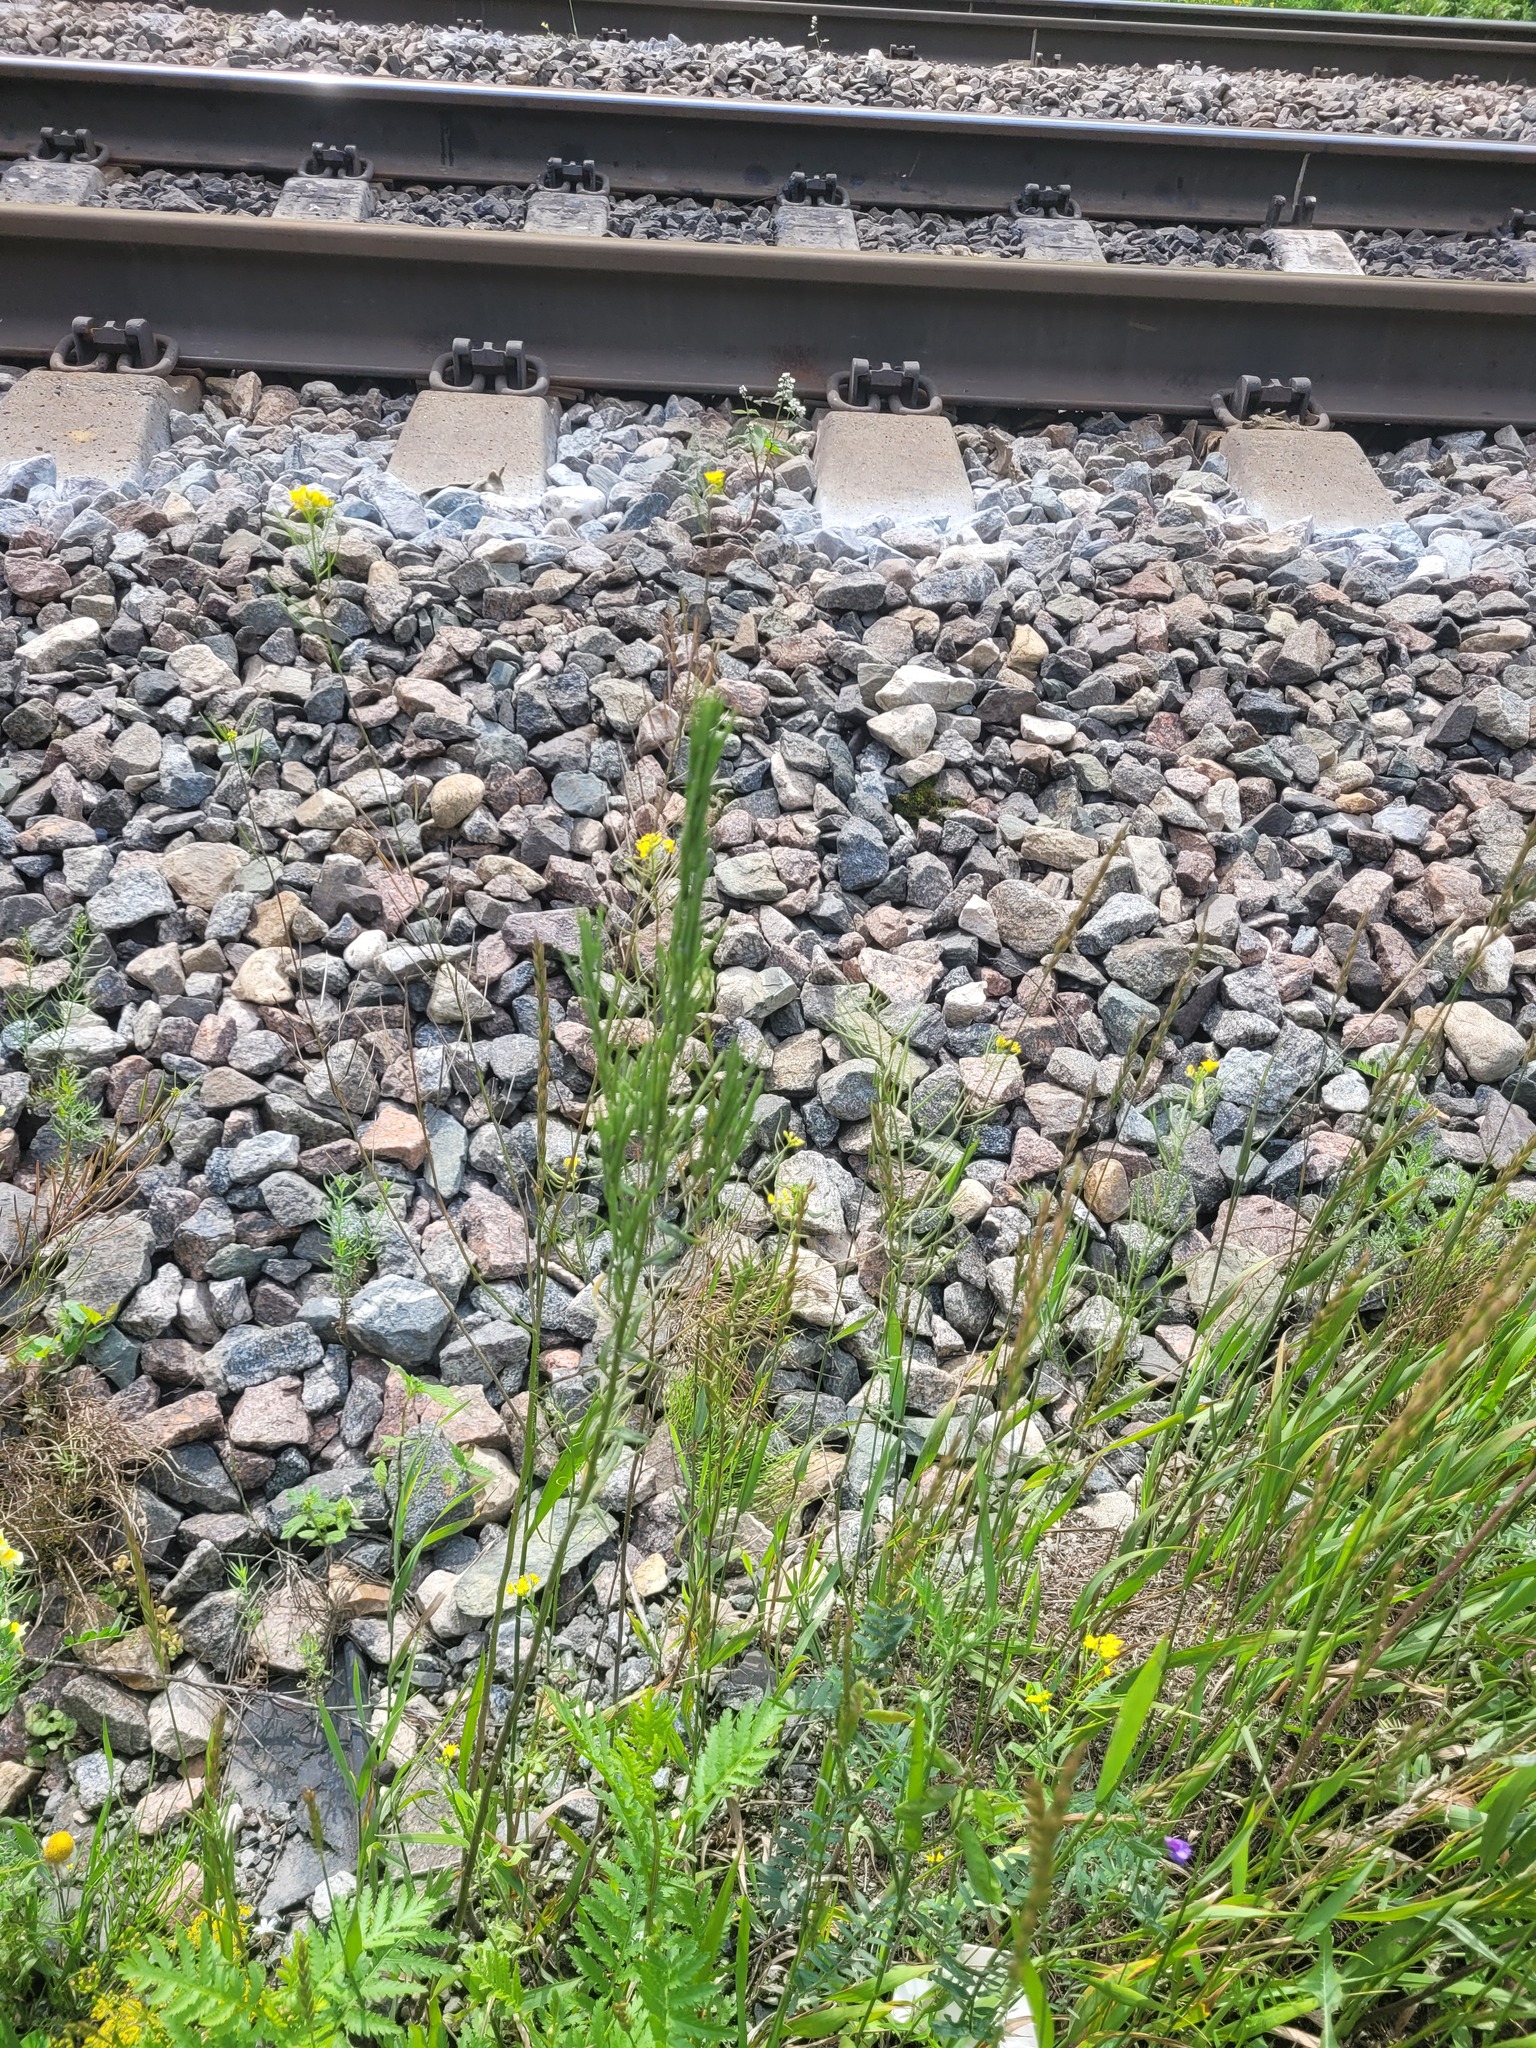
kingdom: Plantae
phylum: Tracheophyta
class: Magnoliopsida
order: Brassicales
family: Brassicaceae
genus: Erysimum
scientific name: Erysimum hieraciifolium
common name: European wallflower
